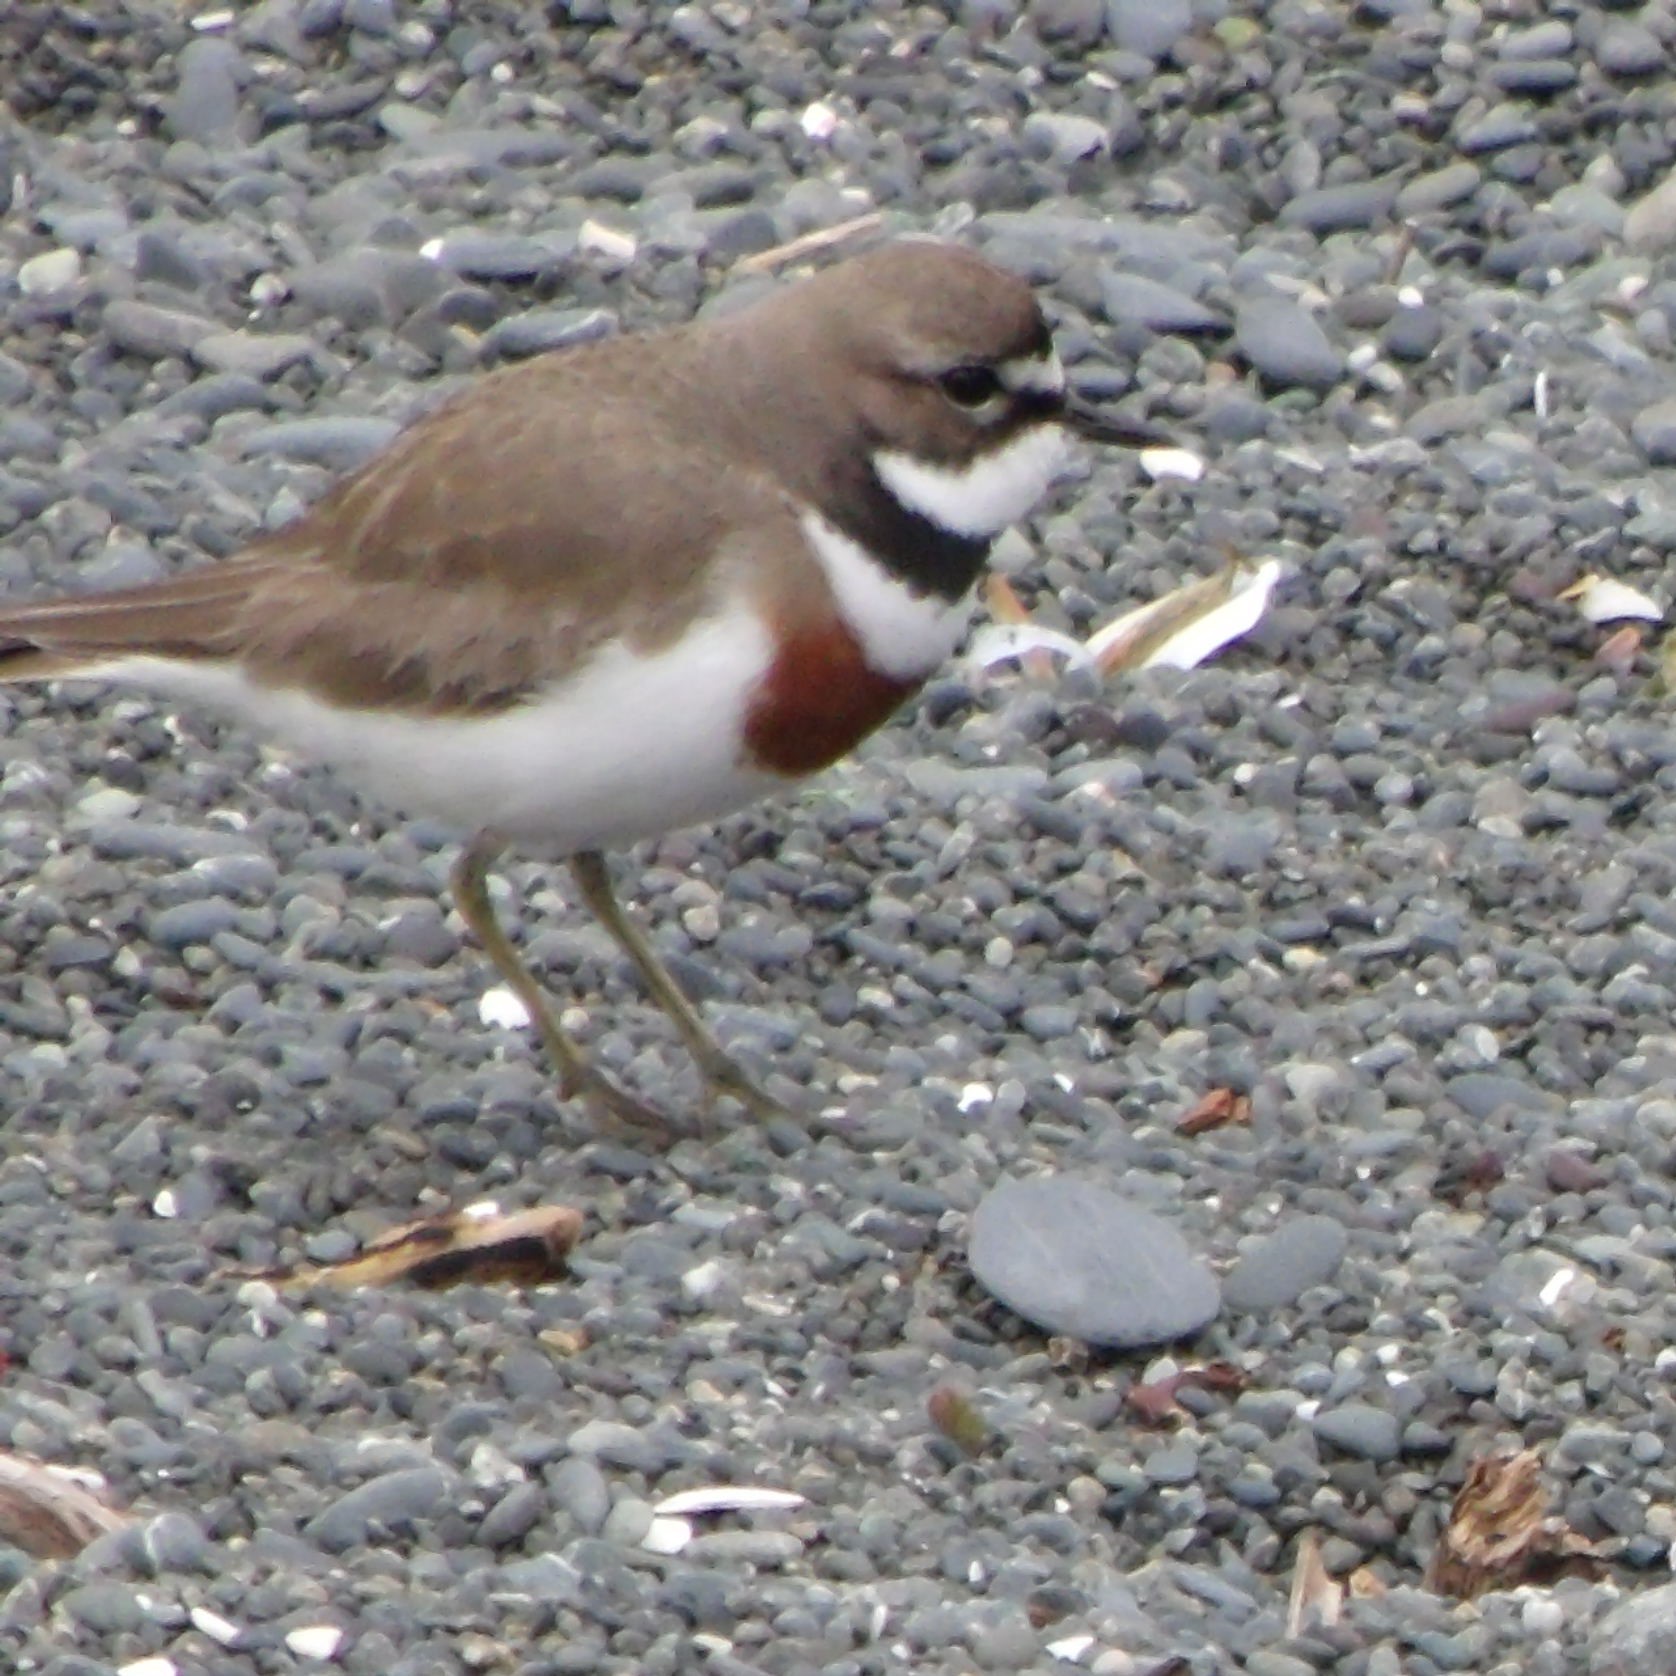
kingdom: Animalia
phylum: Chordata
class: Aves
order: Charadriiformes
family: Charadriidae
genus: Anarhynchus
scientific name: Anarhynchus
